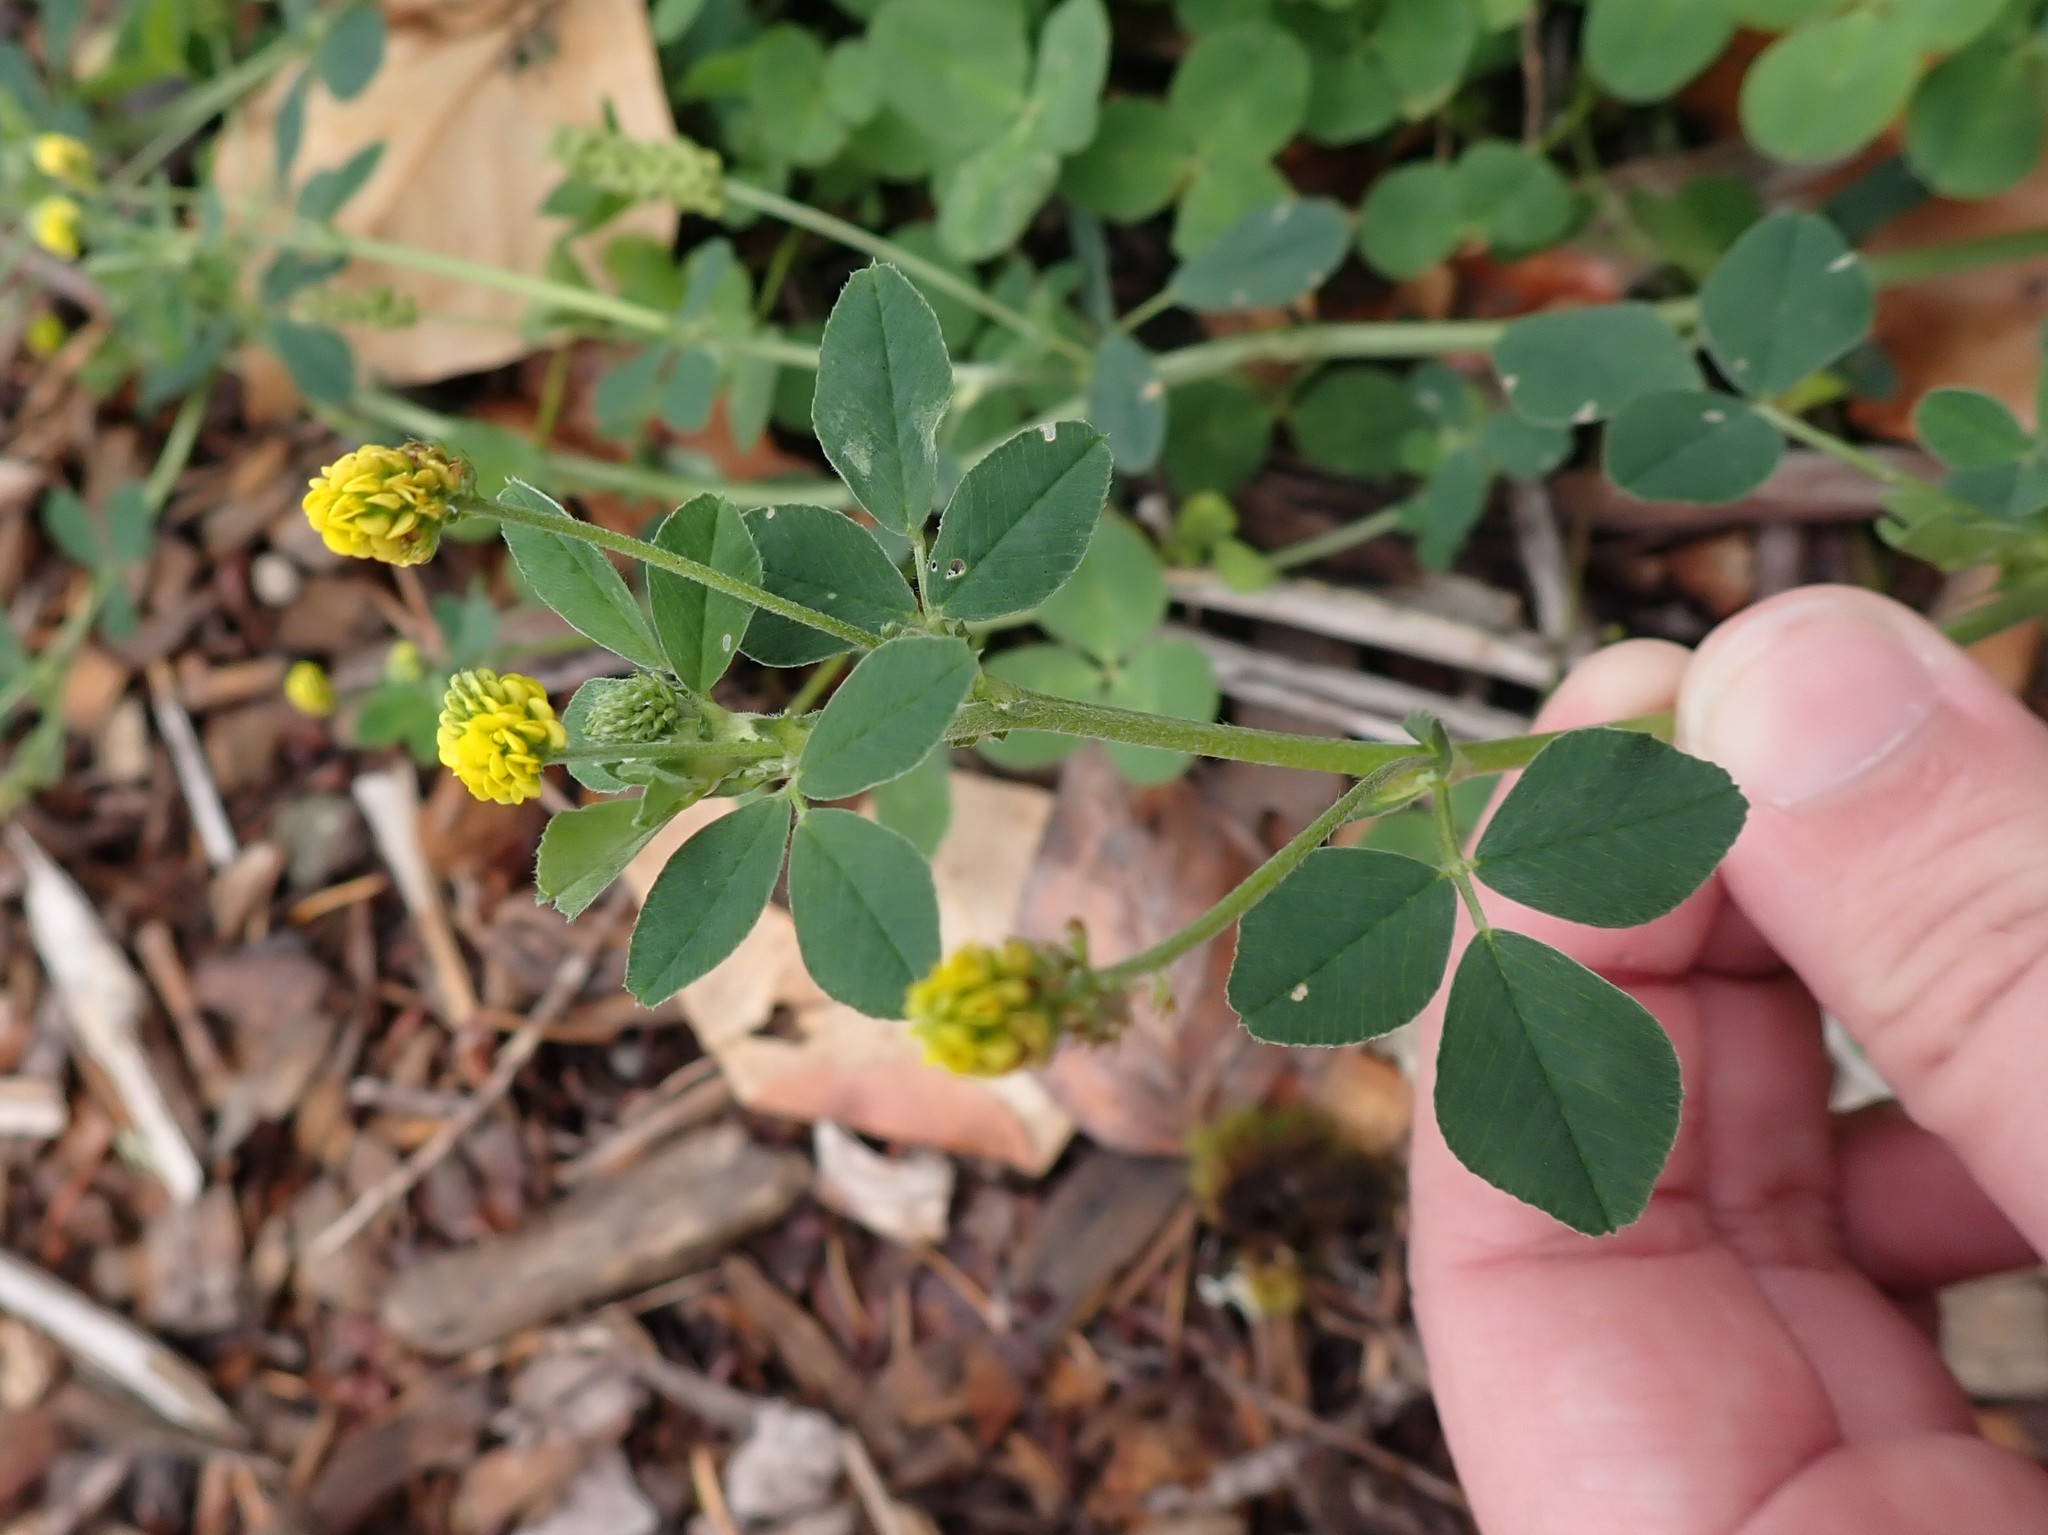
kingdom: Plantae
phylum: Tracheophyta
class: Magnoliopsida
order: Fabales
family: Fabaceae
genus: Medicago
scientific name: Medicago lupulina
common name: Black medick
